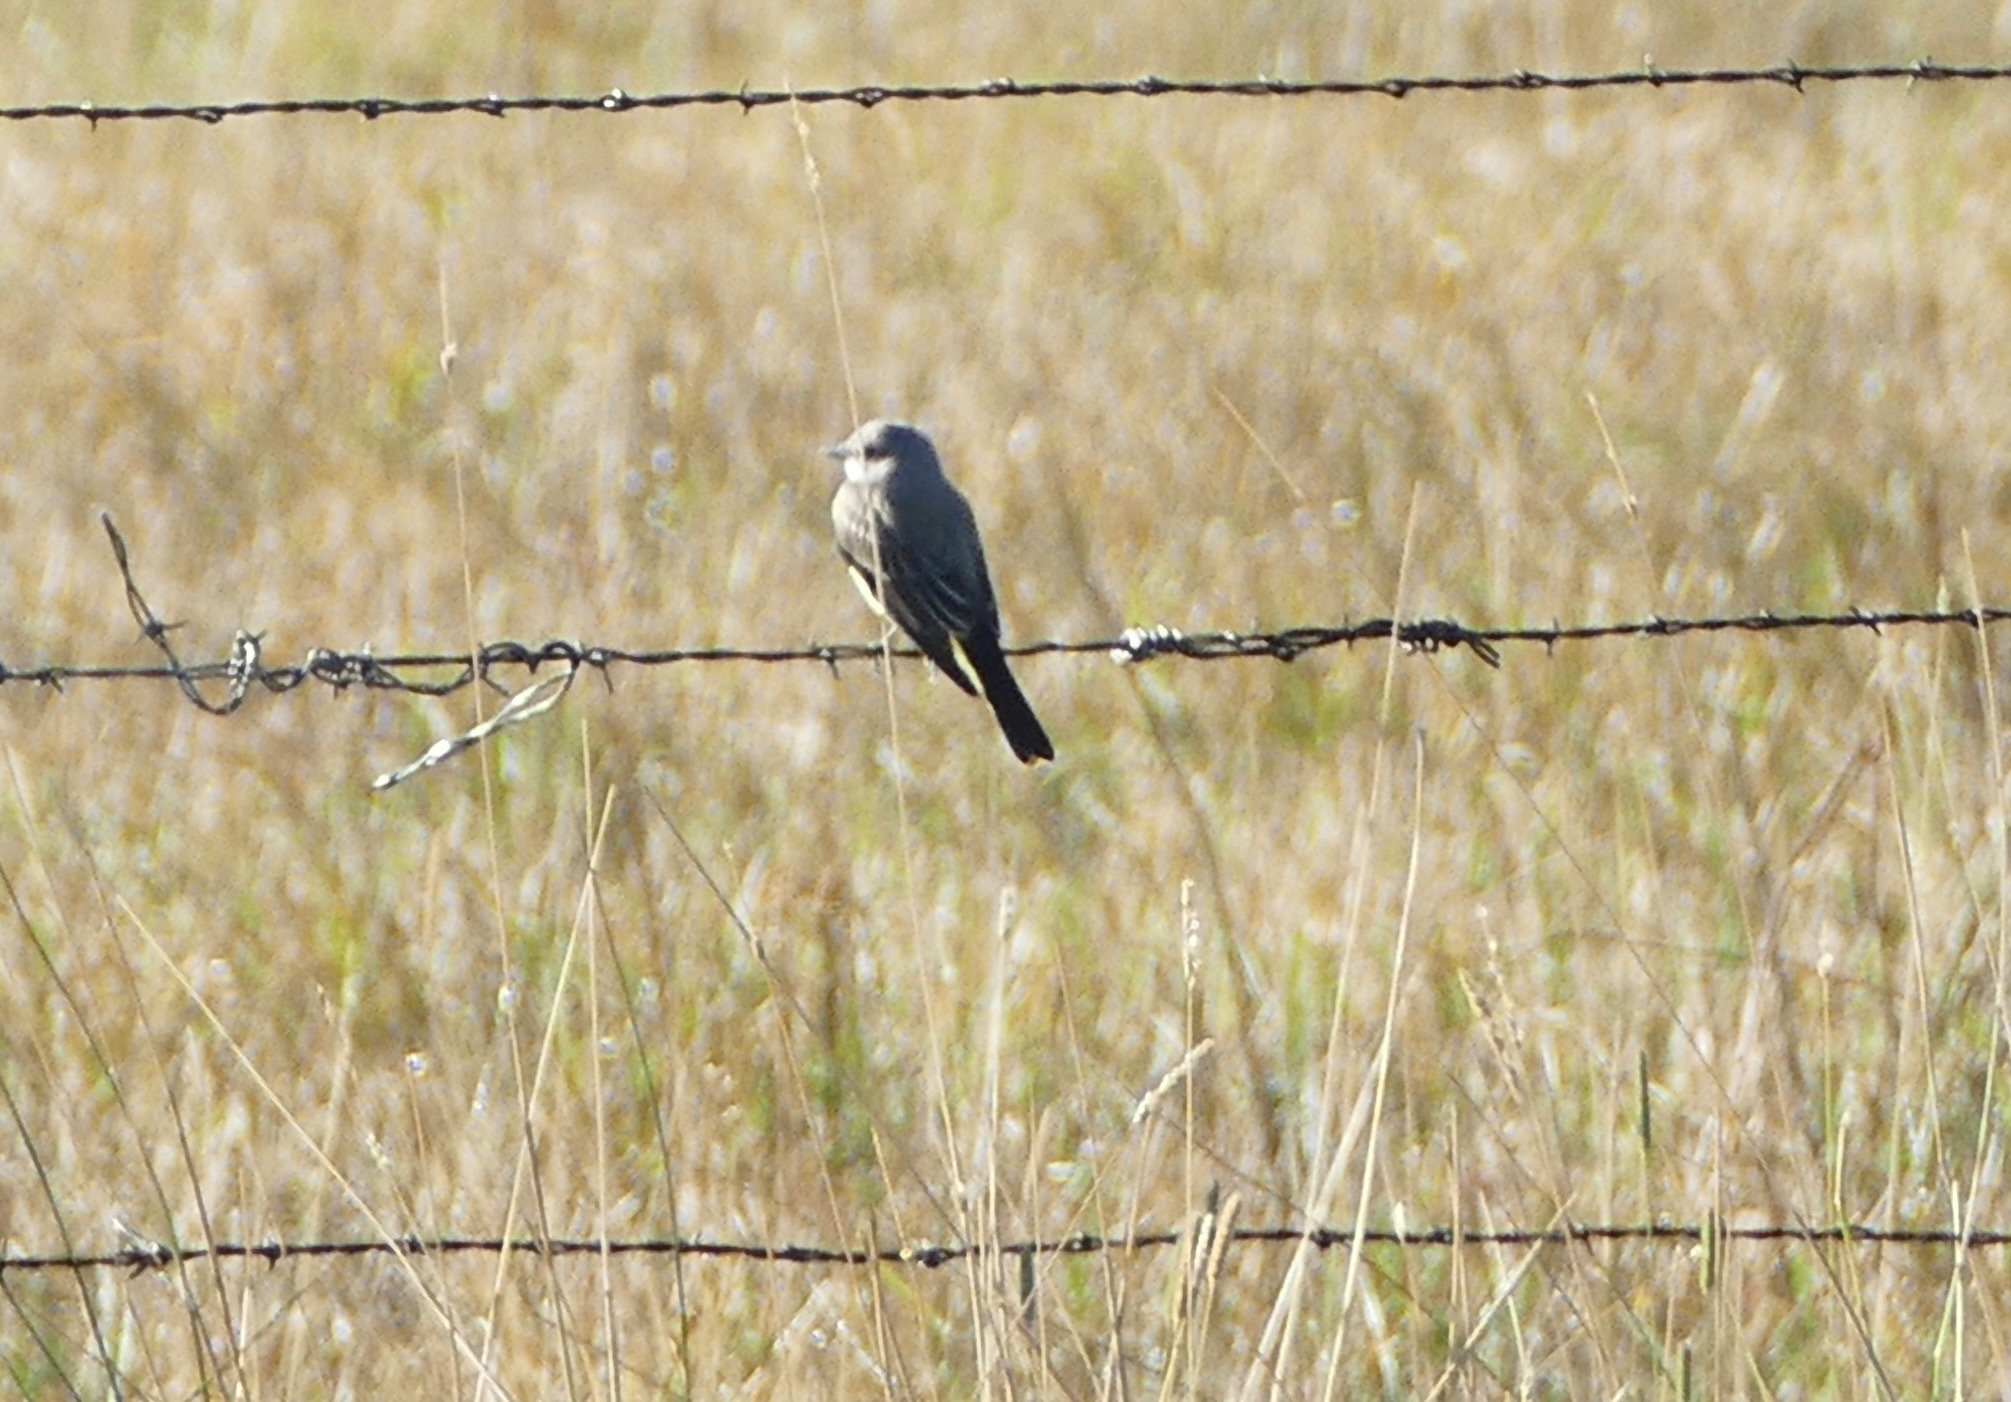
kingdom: Animalia
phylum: Chordata
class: Aves
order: Passeriformes
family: Tyrannidae
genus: Tyrannus
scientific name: Tyrannus verticalis
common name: Western kingbird
